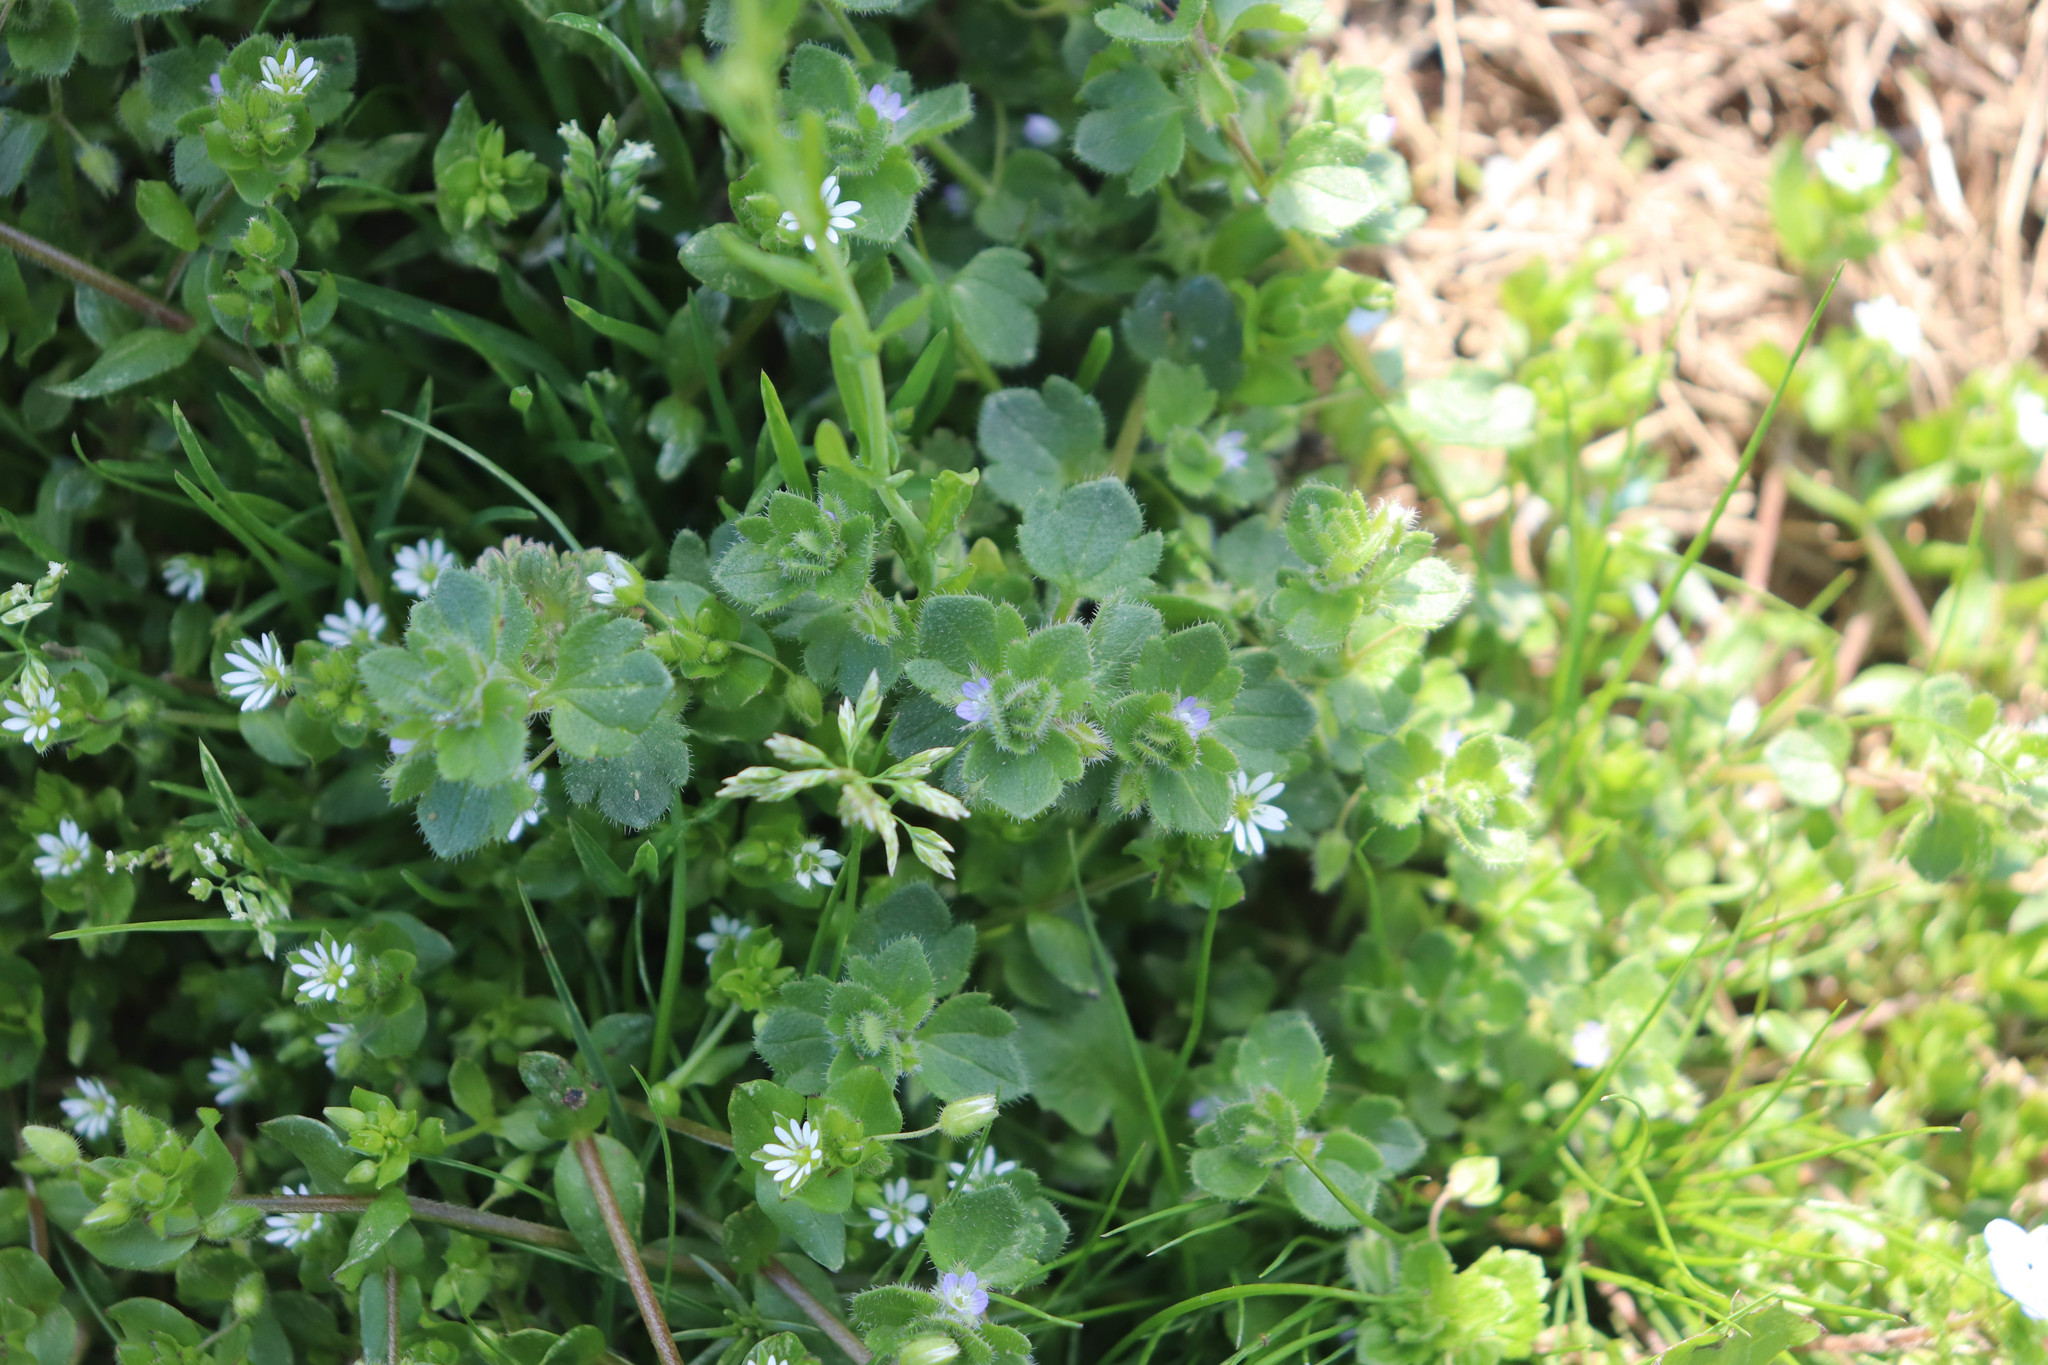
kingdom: Plantae
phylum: Tracheophyta
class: Magnoliopsida
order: Lamiales
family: Plantaginaceae
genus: Veronica
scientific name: Veronica hederifolia
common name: Ivy-leaved speedwell
